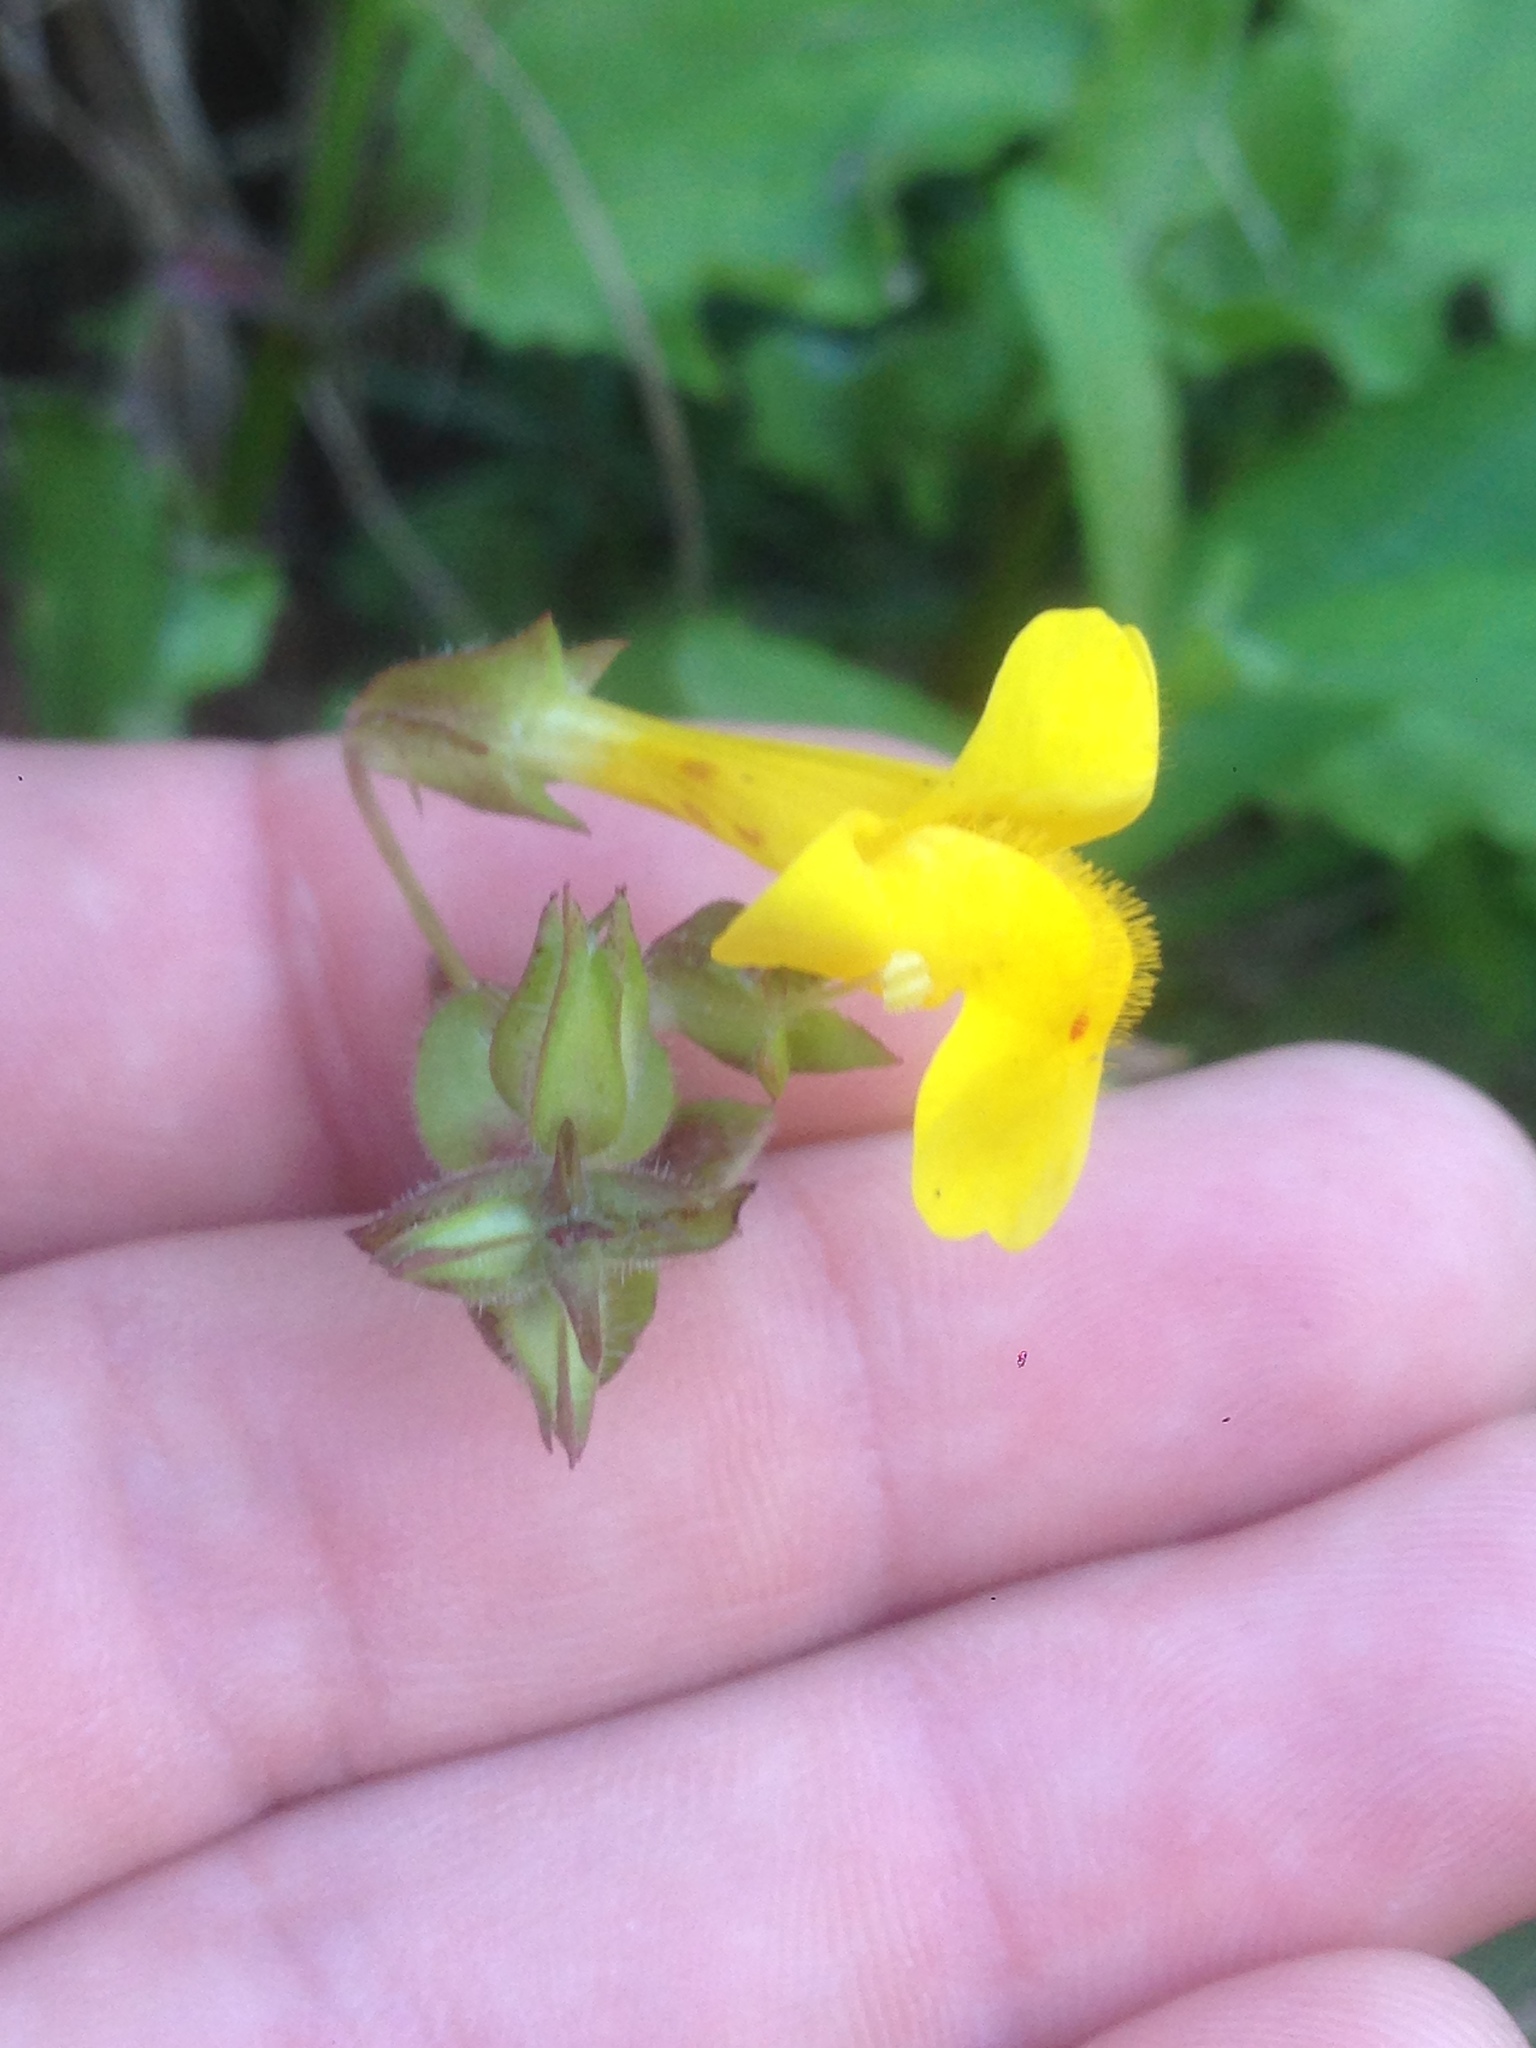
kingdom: Plantae
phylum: Tracheophyta
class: Magnoliopsida
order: Lamiales
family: Phrymaceae
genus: Erythranthe
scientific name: Erythranthe guttata
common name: Monkeyflower
